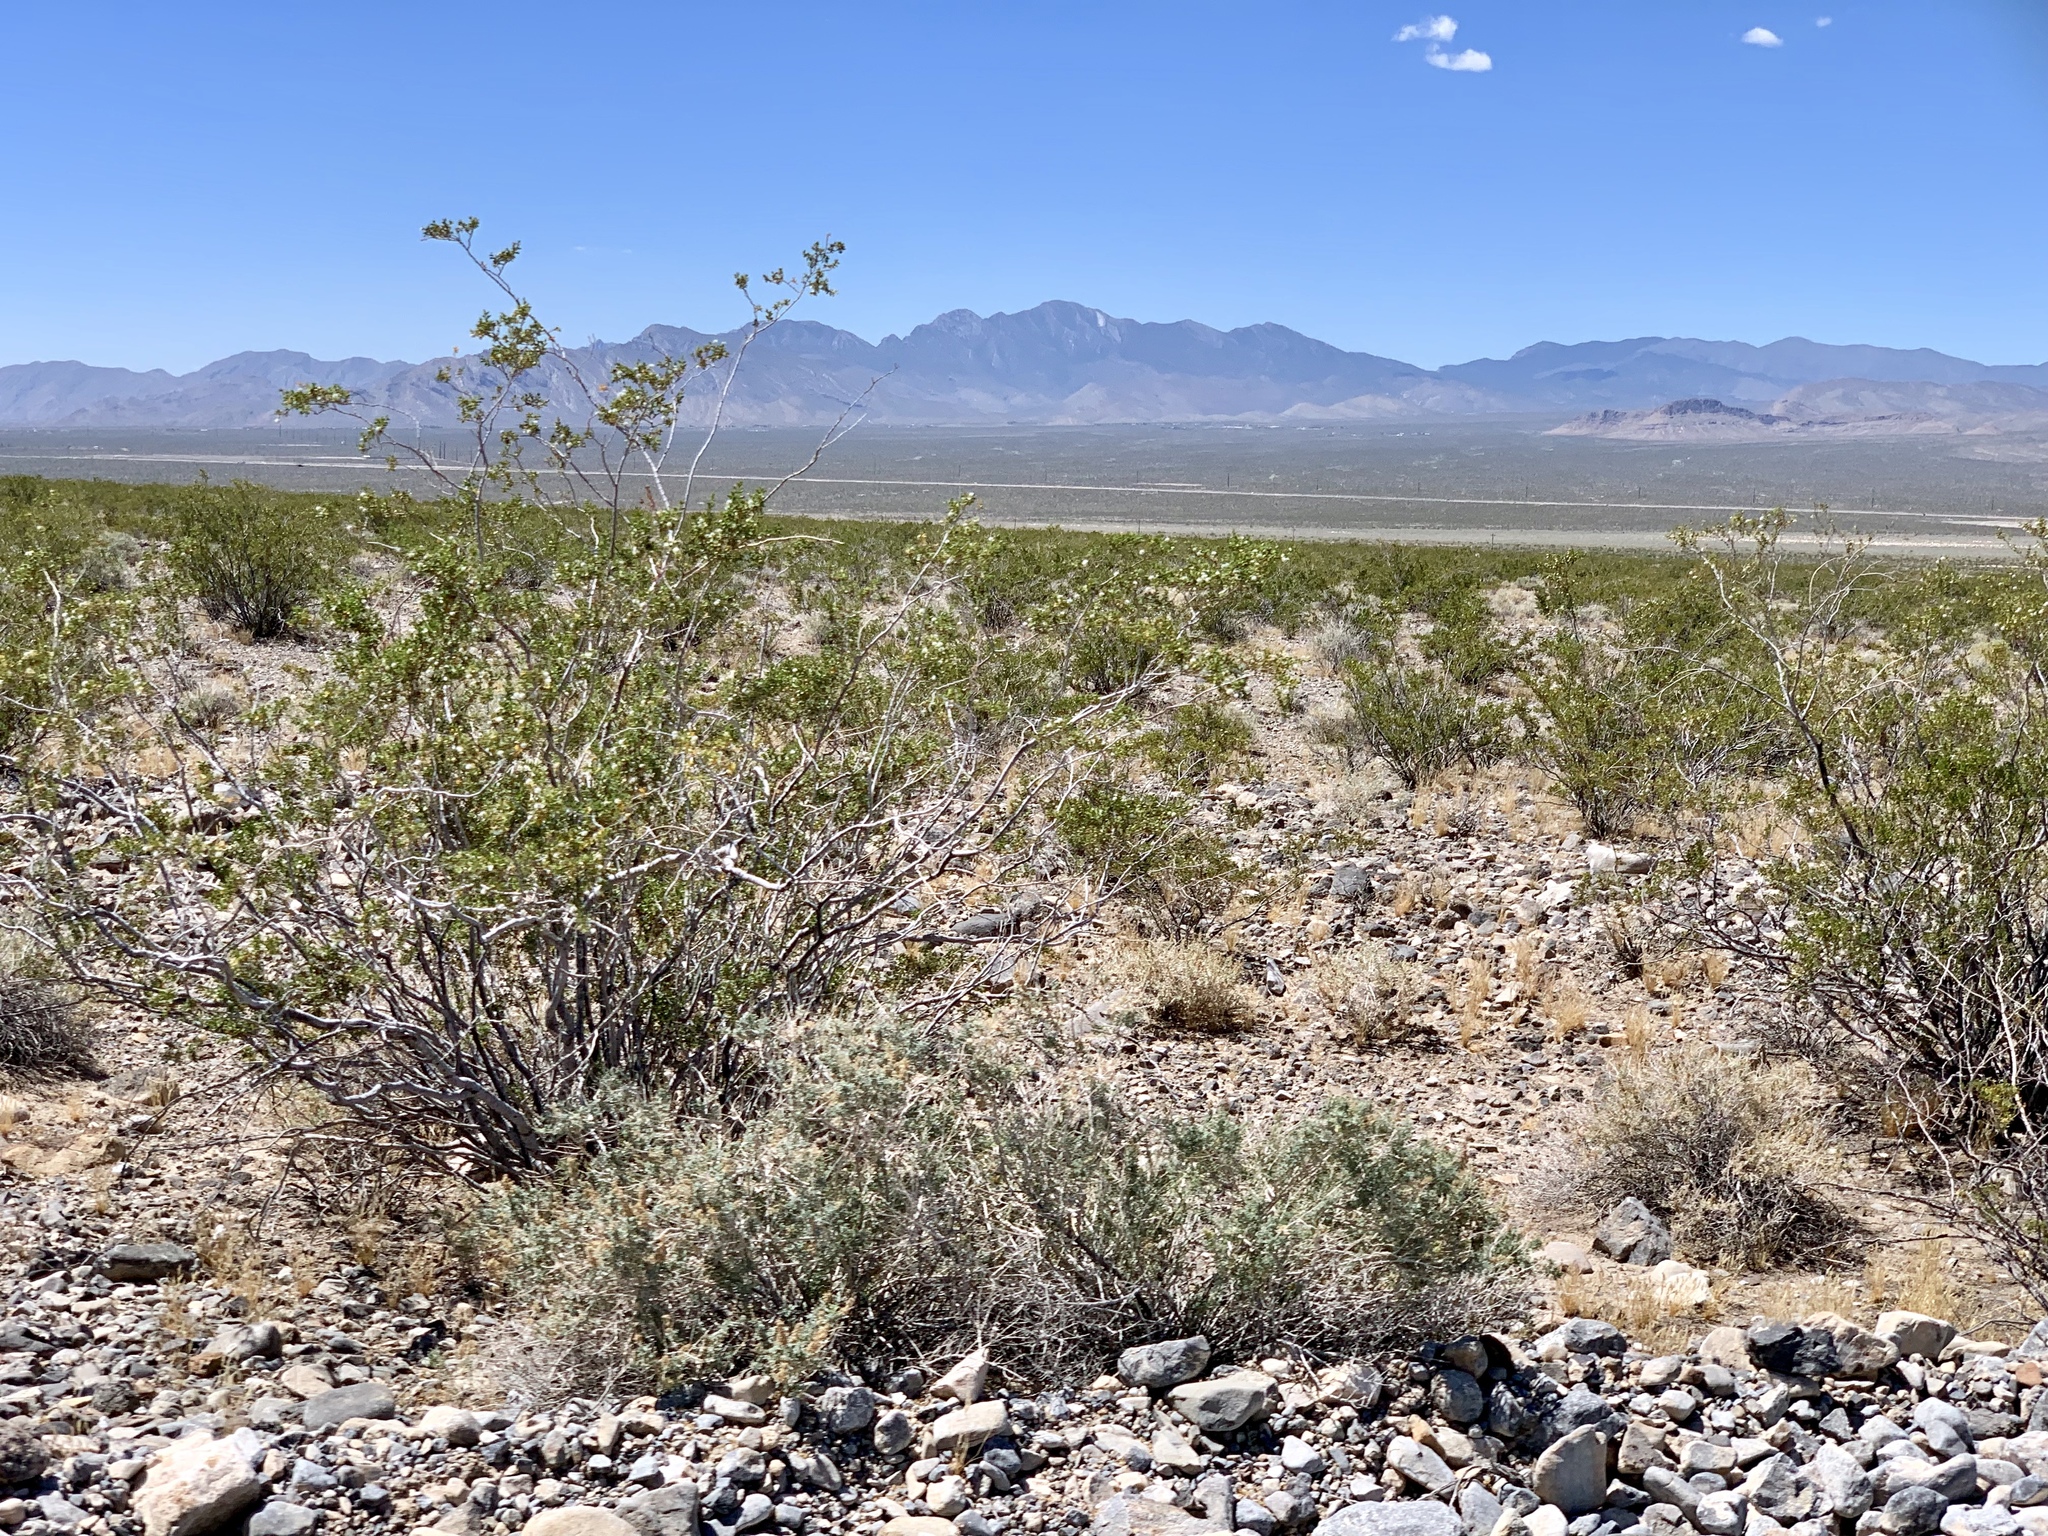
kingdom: Plantae
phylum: Tracheophyta
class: Magnoliopsida
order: Zygophyllales
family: Zygophyllaceae
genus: Larrea
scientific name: Larrea tridentata
